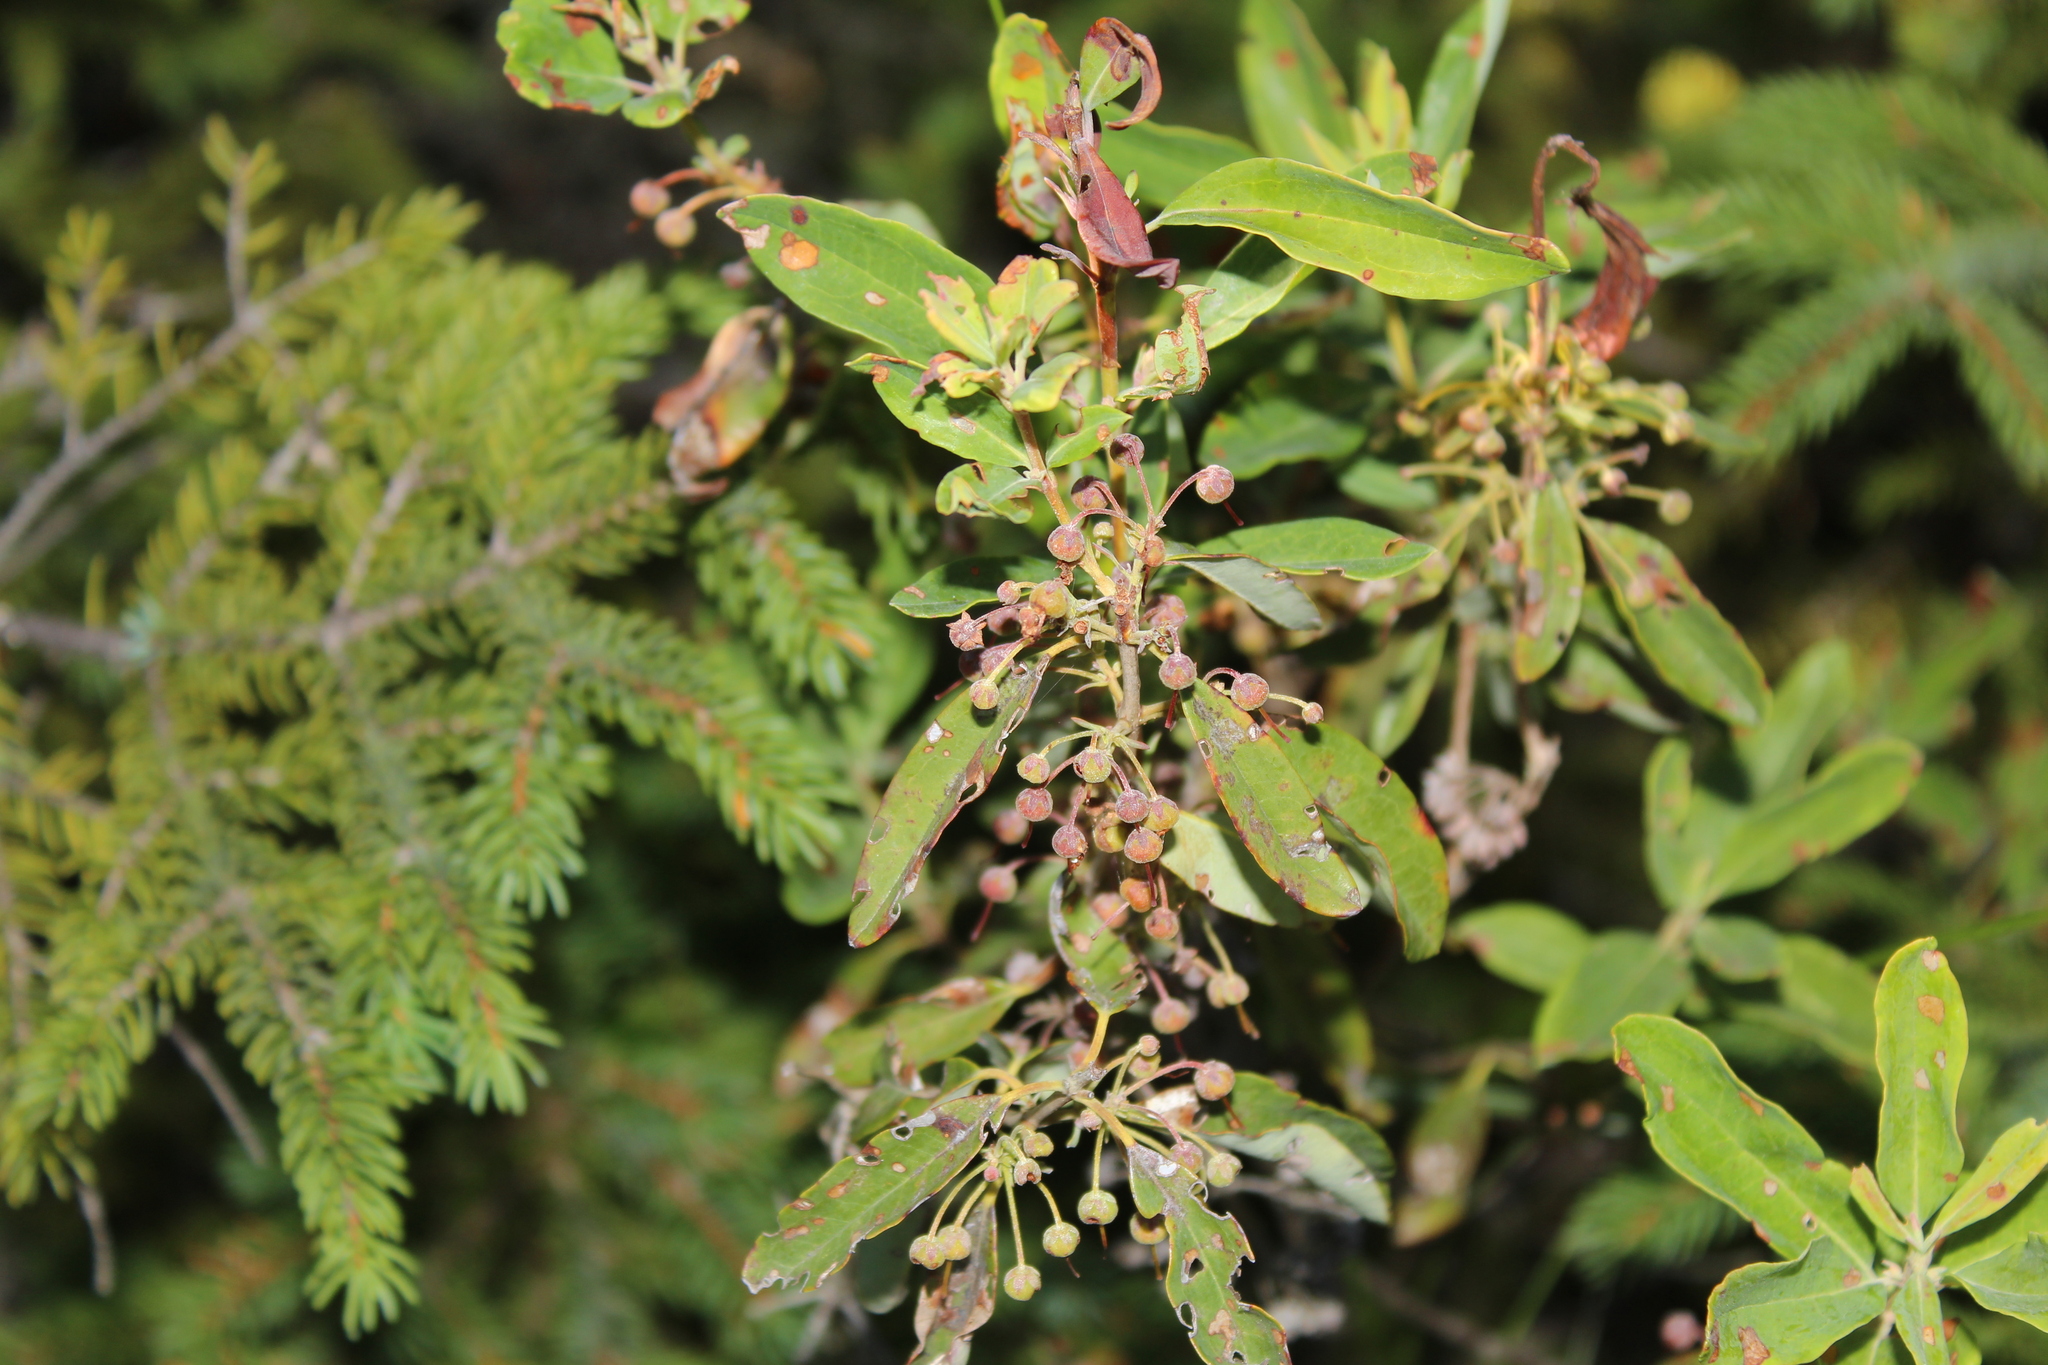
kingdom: Plantae
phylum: Tracheophyta
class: Magnoliopsida
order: Ericales
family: Ericaceae
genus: Kalmia
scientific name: Kalmia angustifolia
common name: Sheep-laurel
